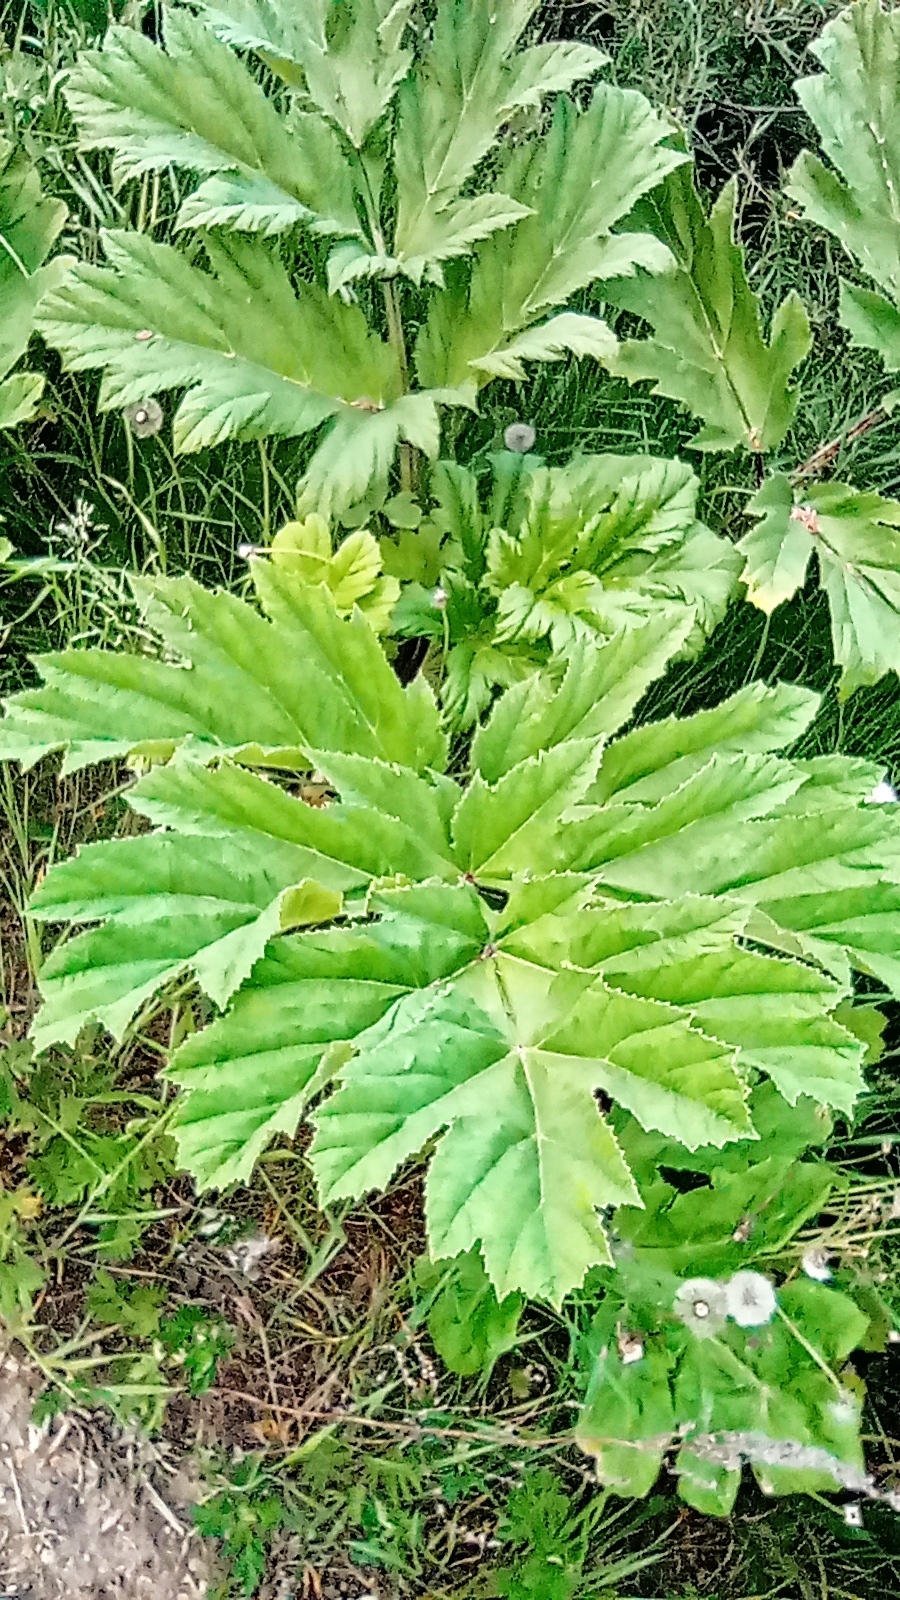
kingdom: Plantae
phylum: Tracheophyta
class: Magnoliopsida
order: Apiales
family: Apiaceae
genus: Heracleum
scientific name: Heracleum sosnowskyi
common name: Sosnowsky's hogweed
